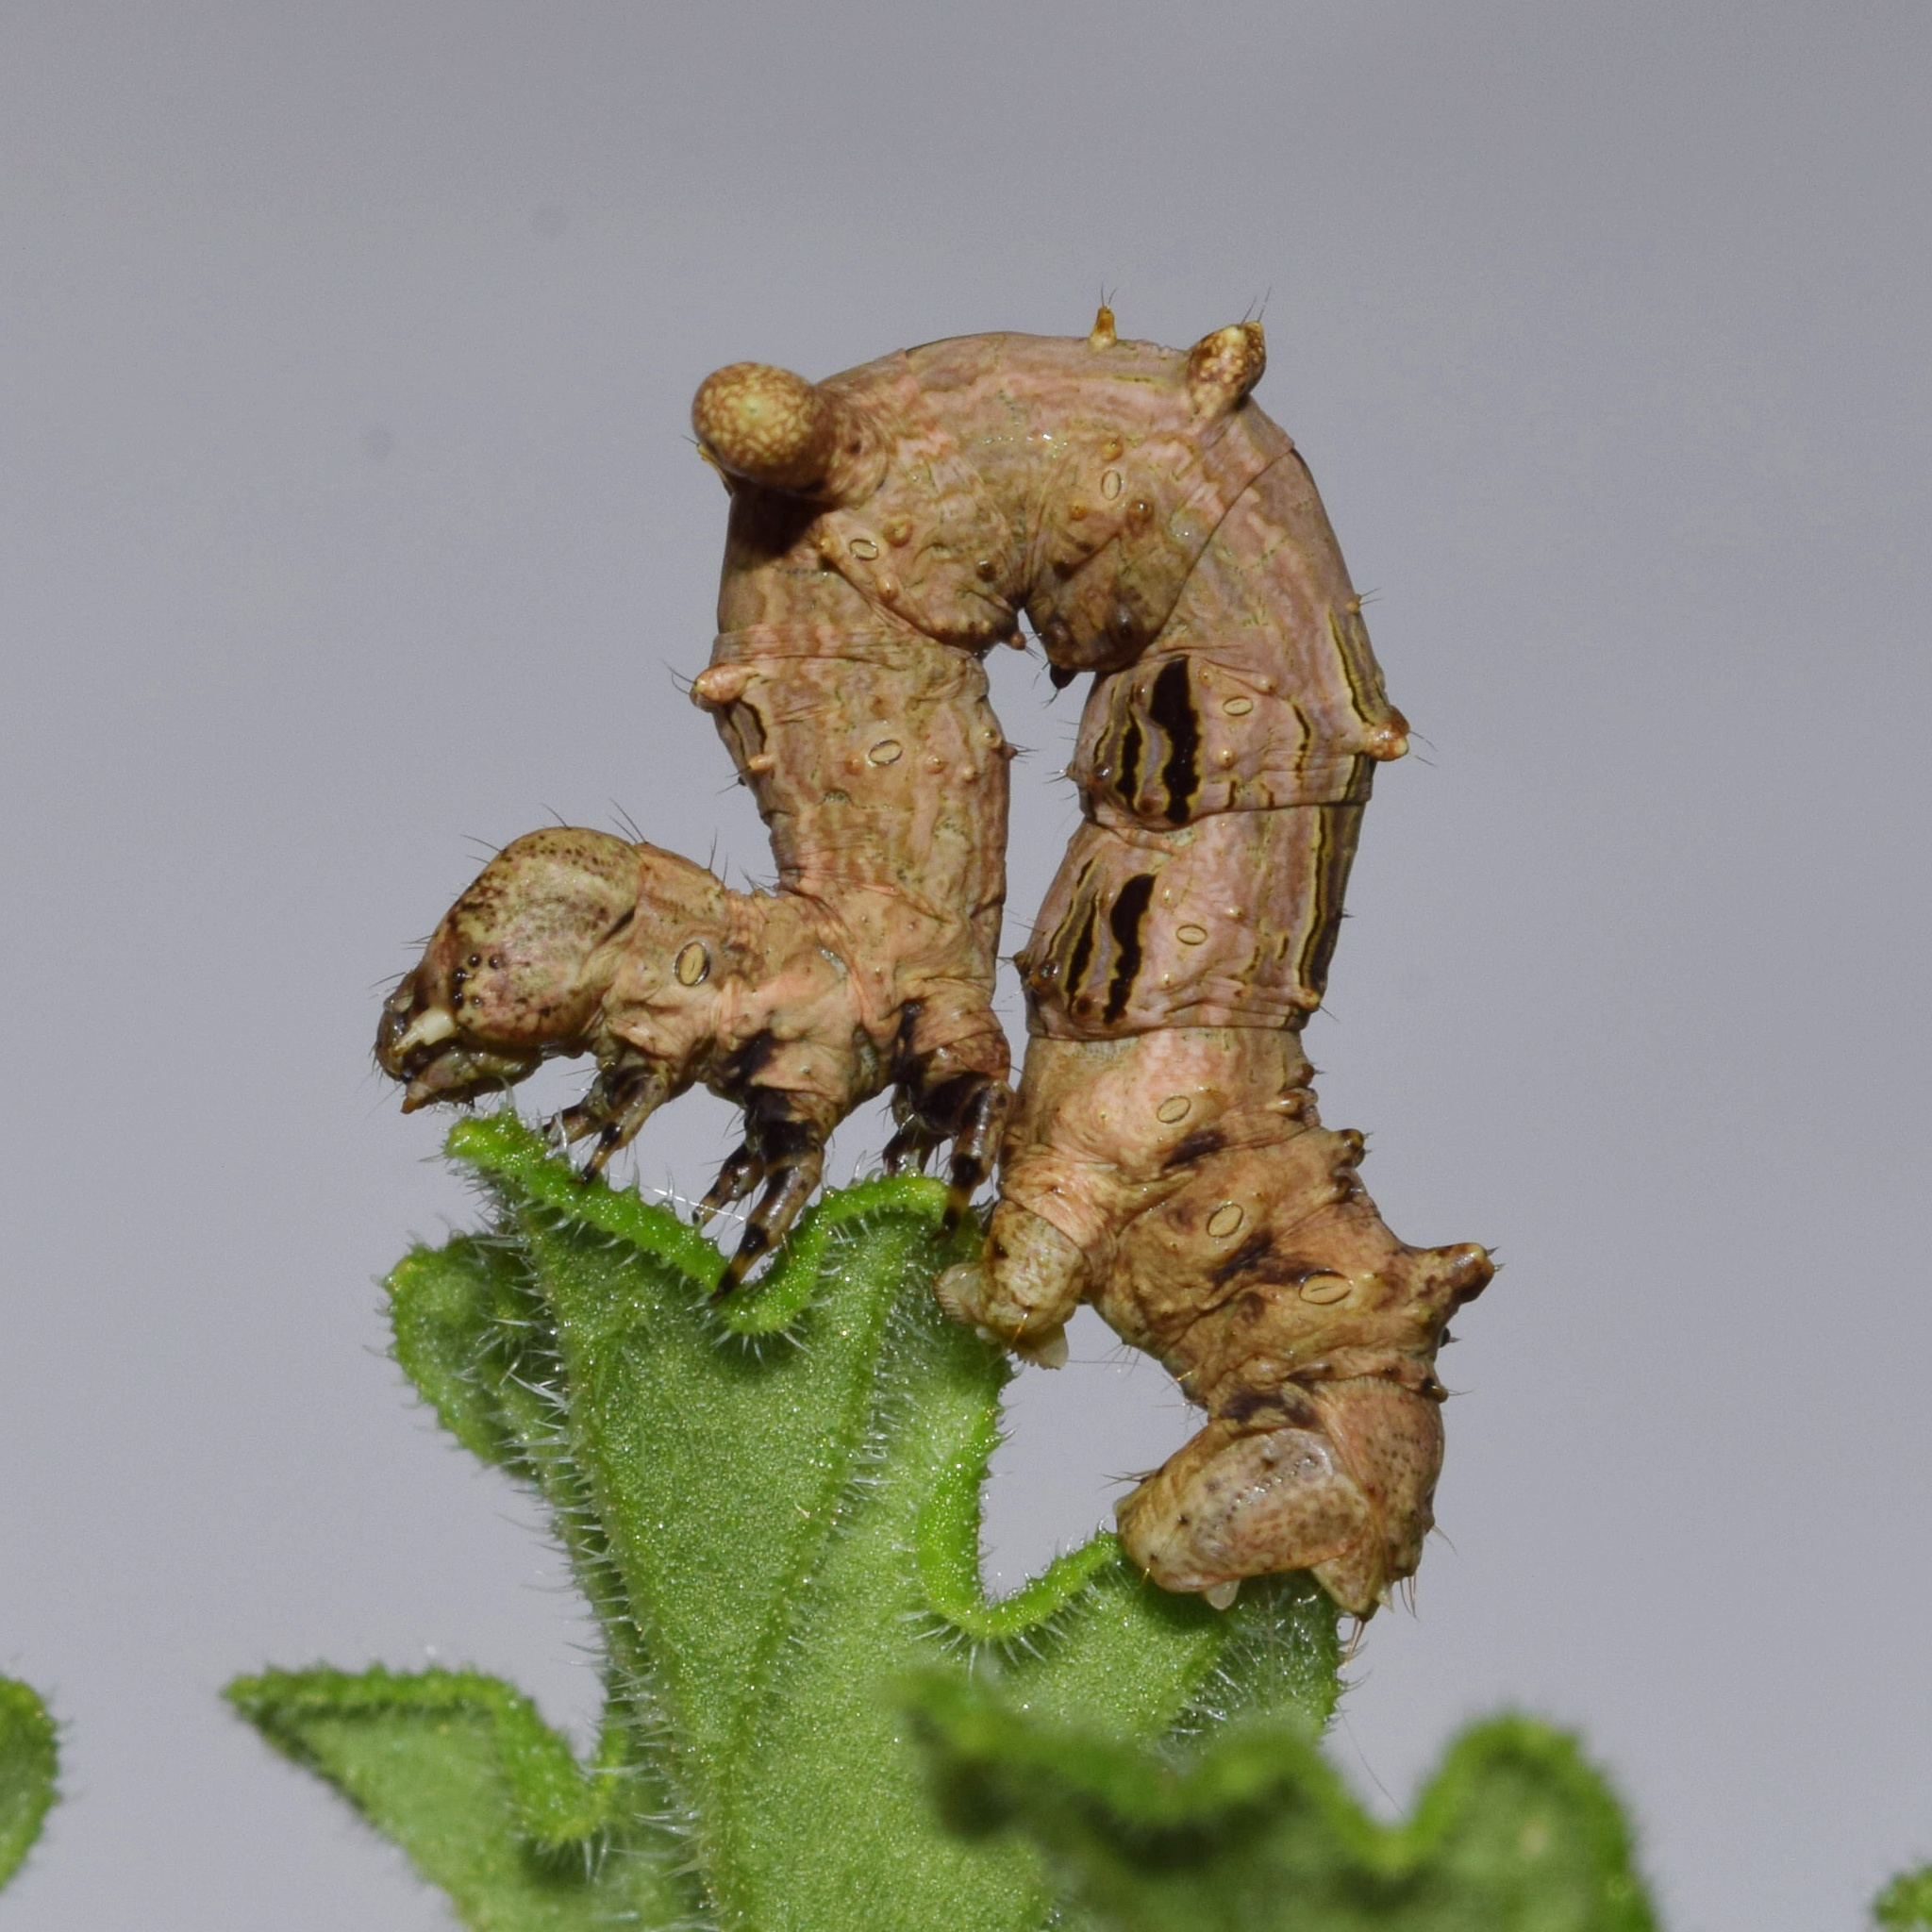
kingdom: Animalia
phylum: Arthropoda
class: Insecta
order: Lepidoptera
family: Geometridae
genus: Xenimpia
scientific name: Xenimpia erosa
